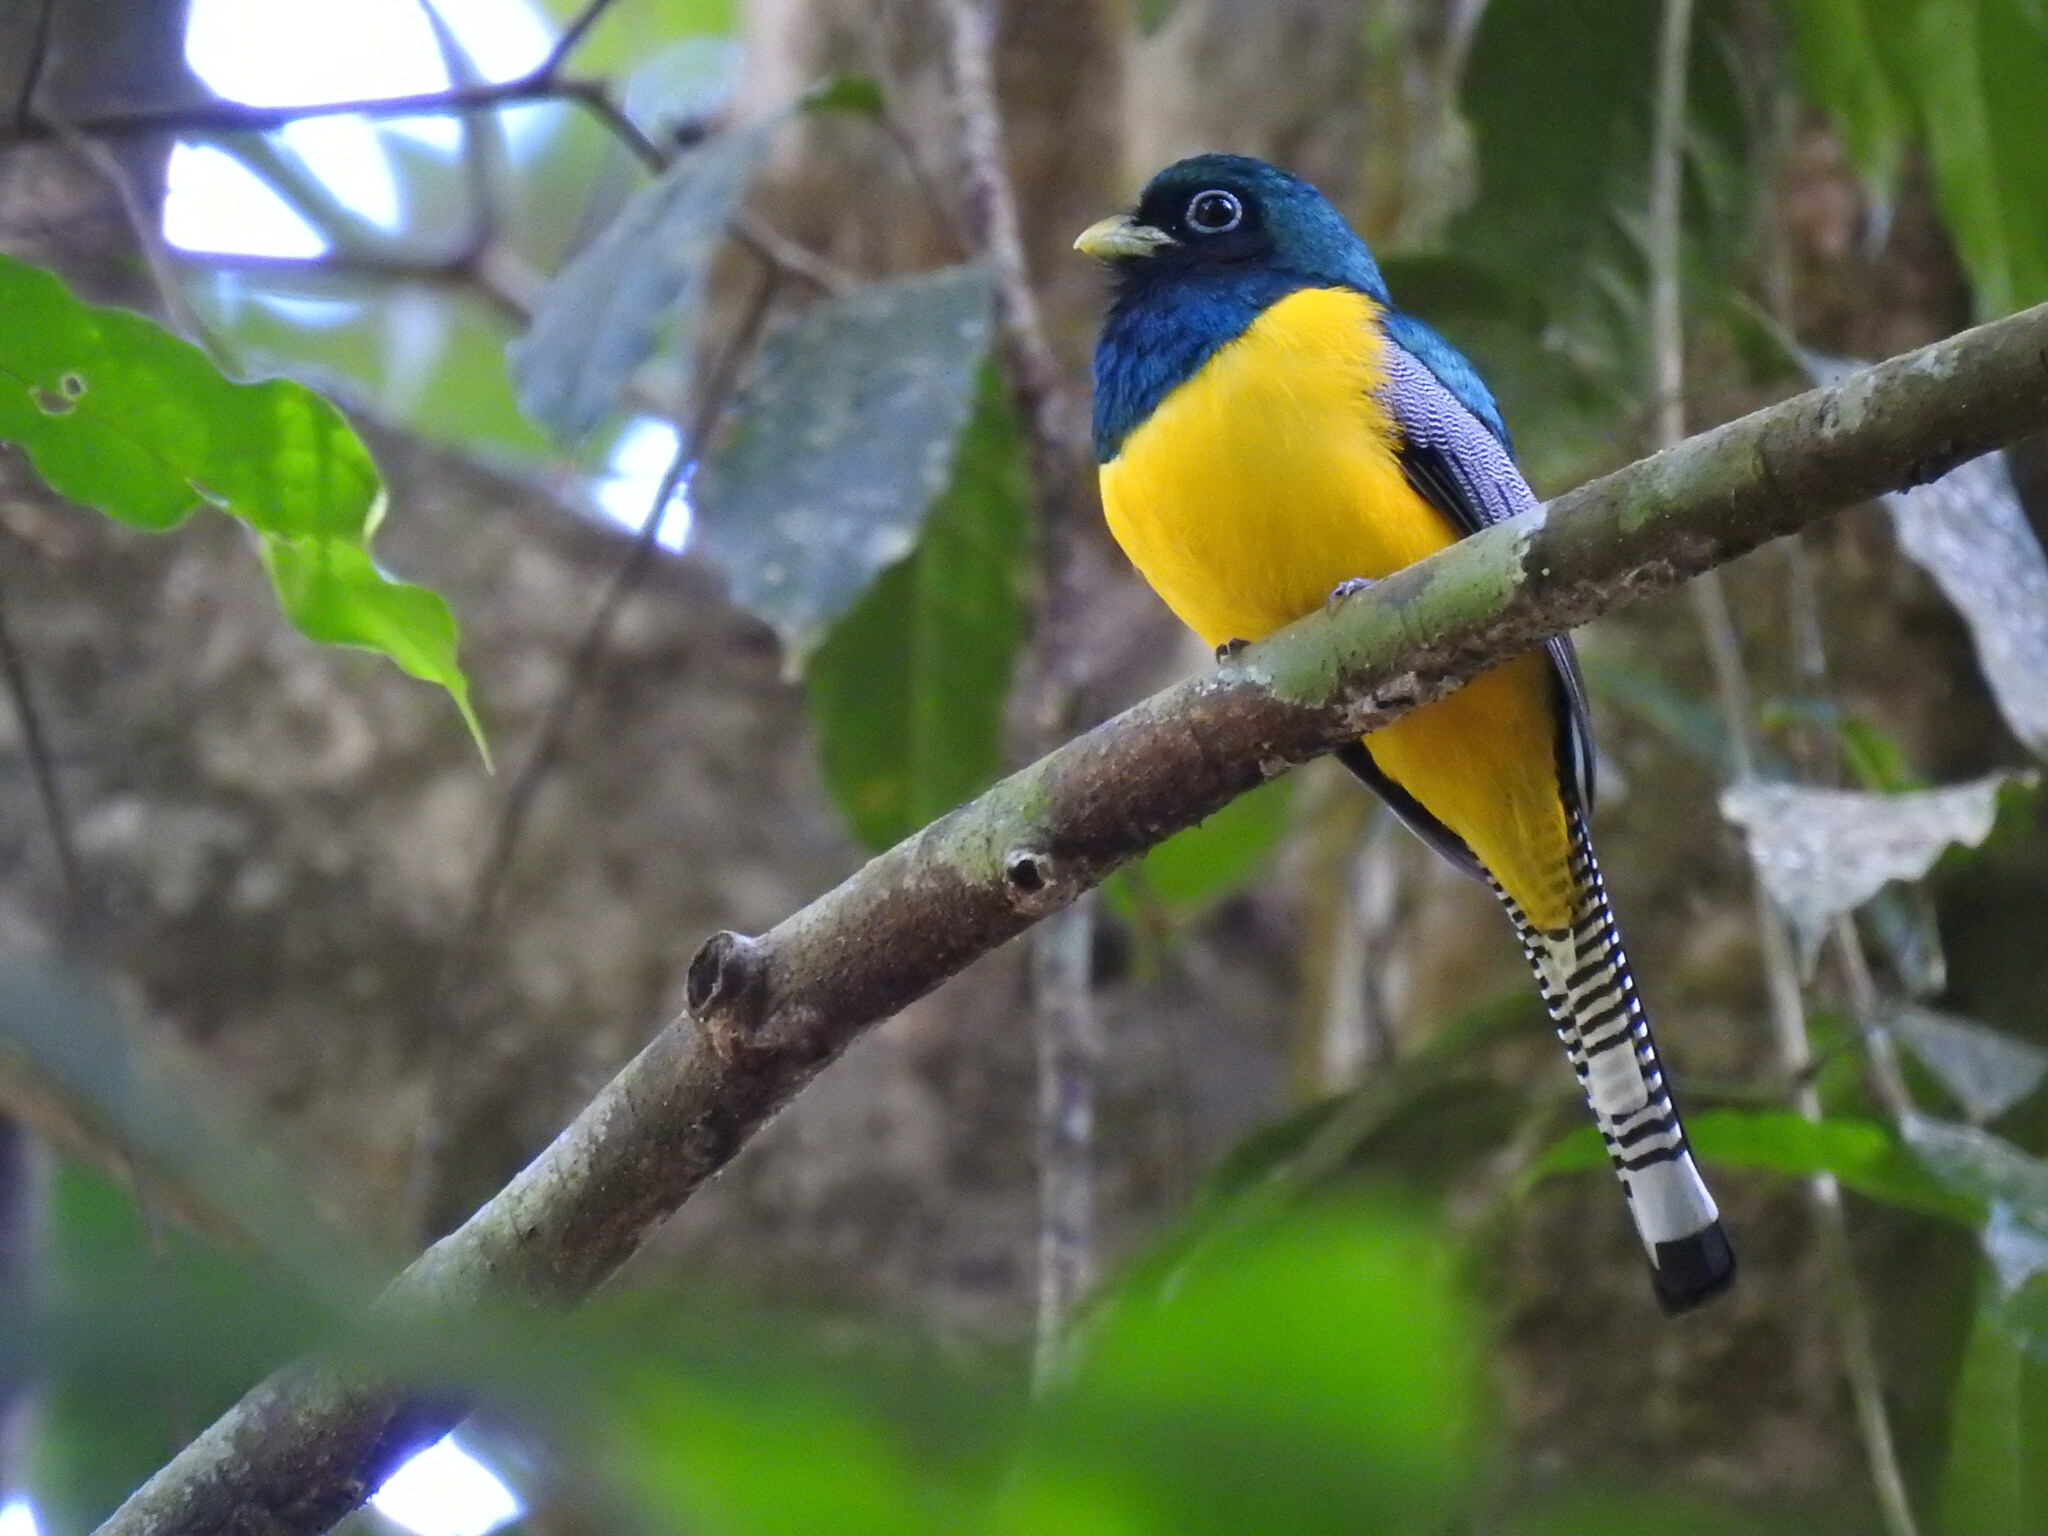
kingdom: Animalia
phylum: Chordata
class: Aves
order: Trogoniformes
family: Trogonidae
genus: Trogon
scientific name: Trogon rufus
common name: Black-throated trogon
